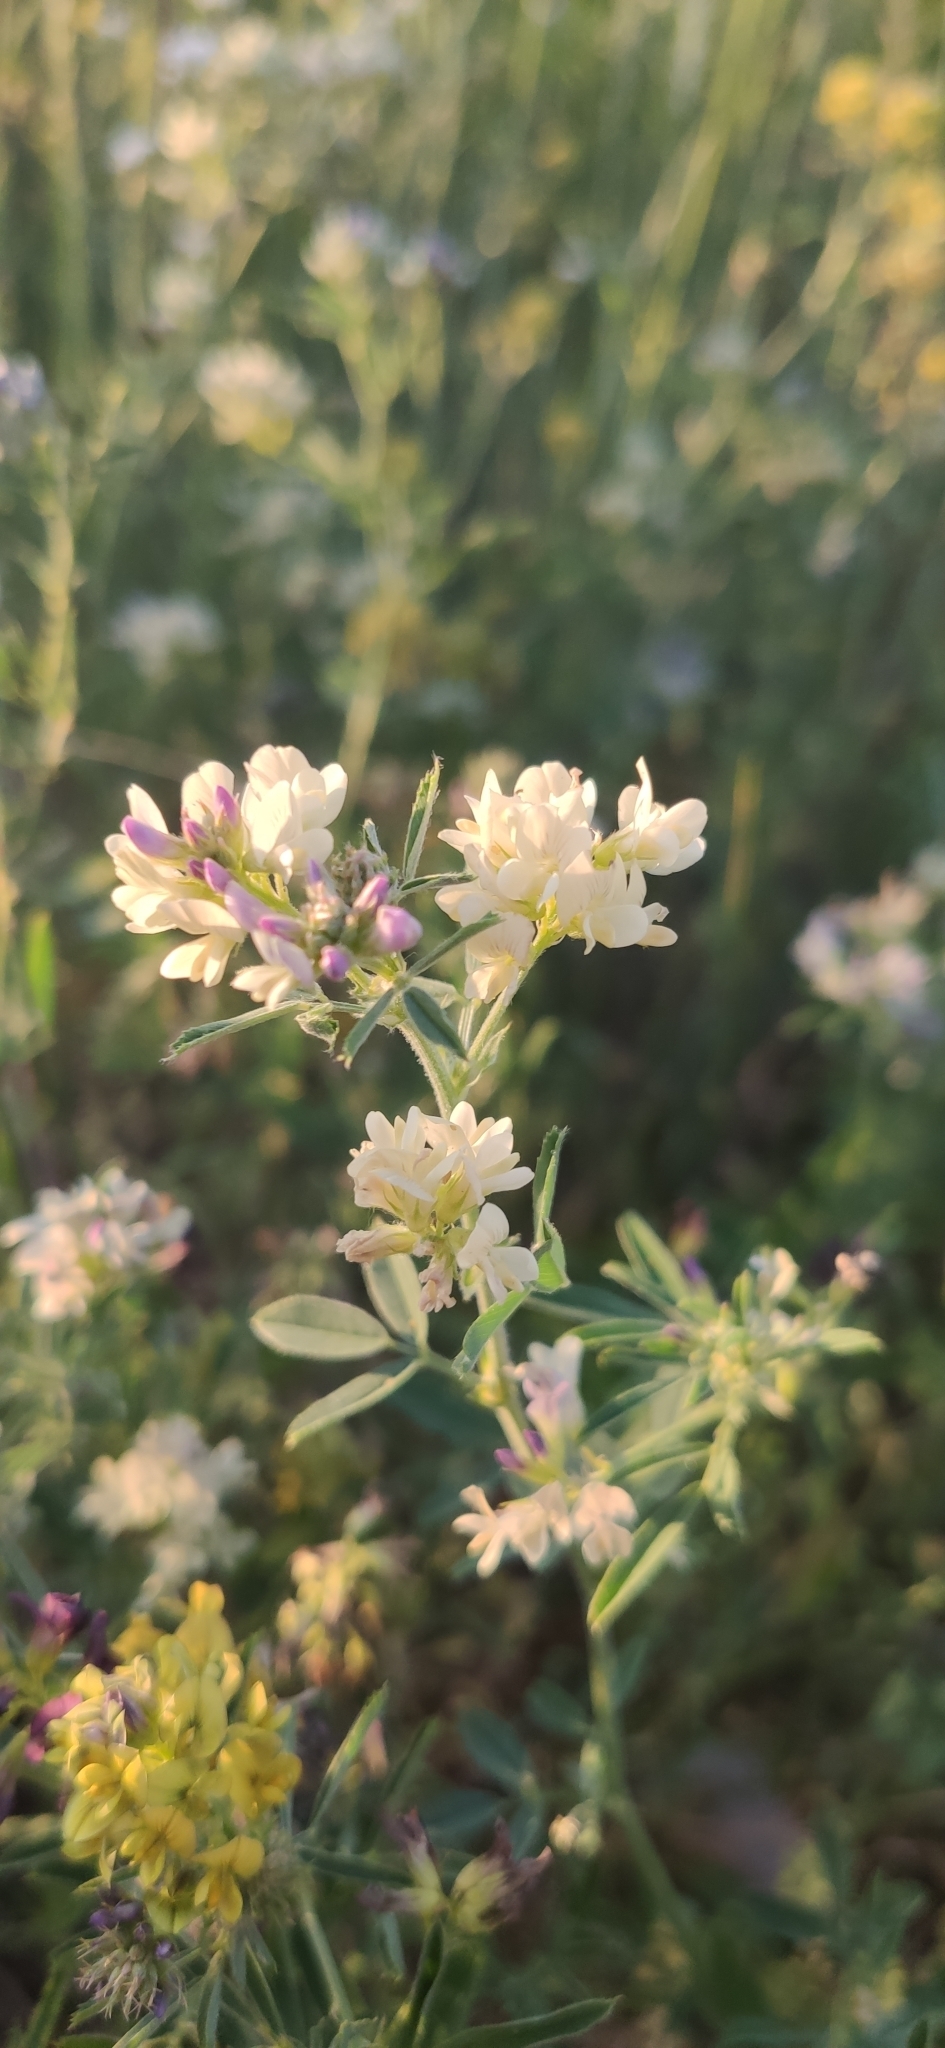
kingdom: Plantae
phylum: Tracheophyta
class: Magnoliopsida
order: Fabales
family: Fabaceae
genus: Medicago
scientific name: Medicago varia
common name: Sand lucerne
